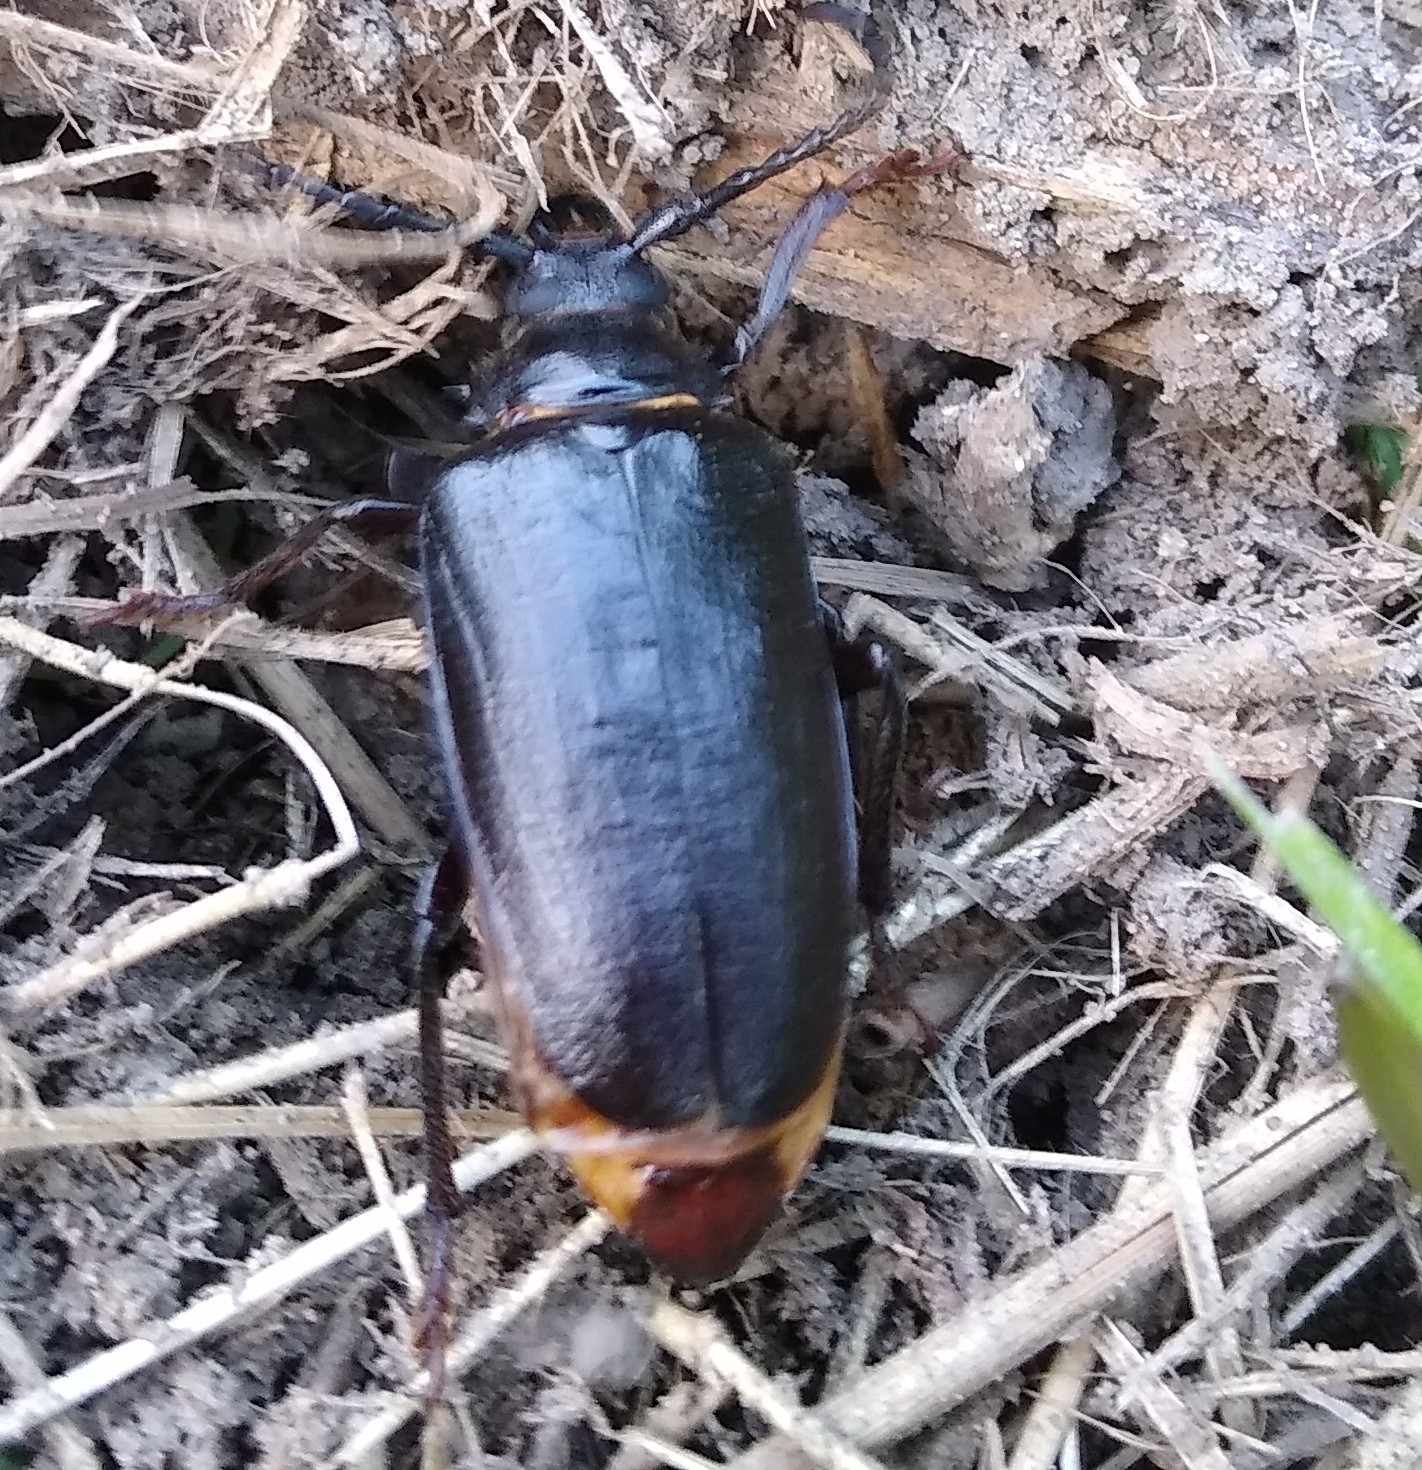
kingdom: Animalia
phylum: Arthropoda
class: Insecta
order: Coleoptera
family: Cerambycidae
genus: Prionus
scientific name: Prionus coriarius
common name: Tanner beetle
